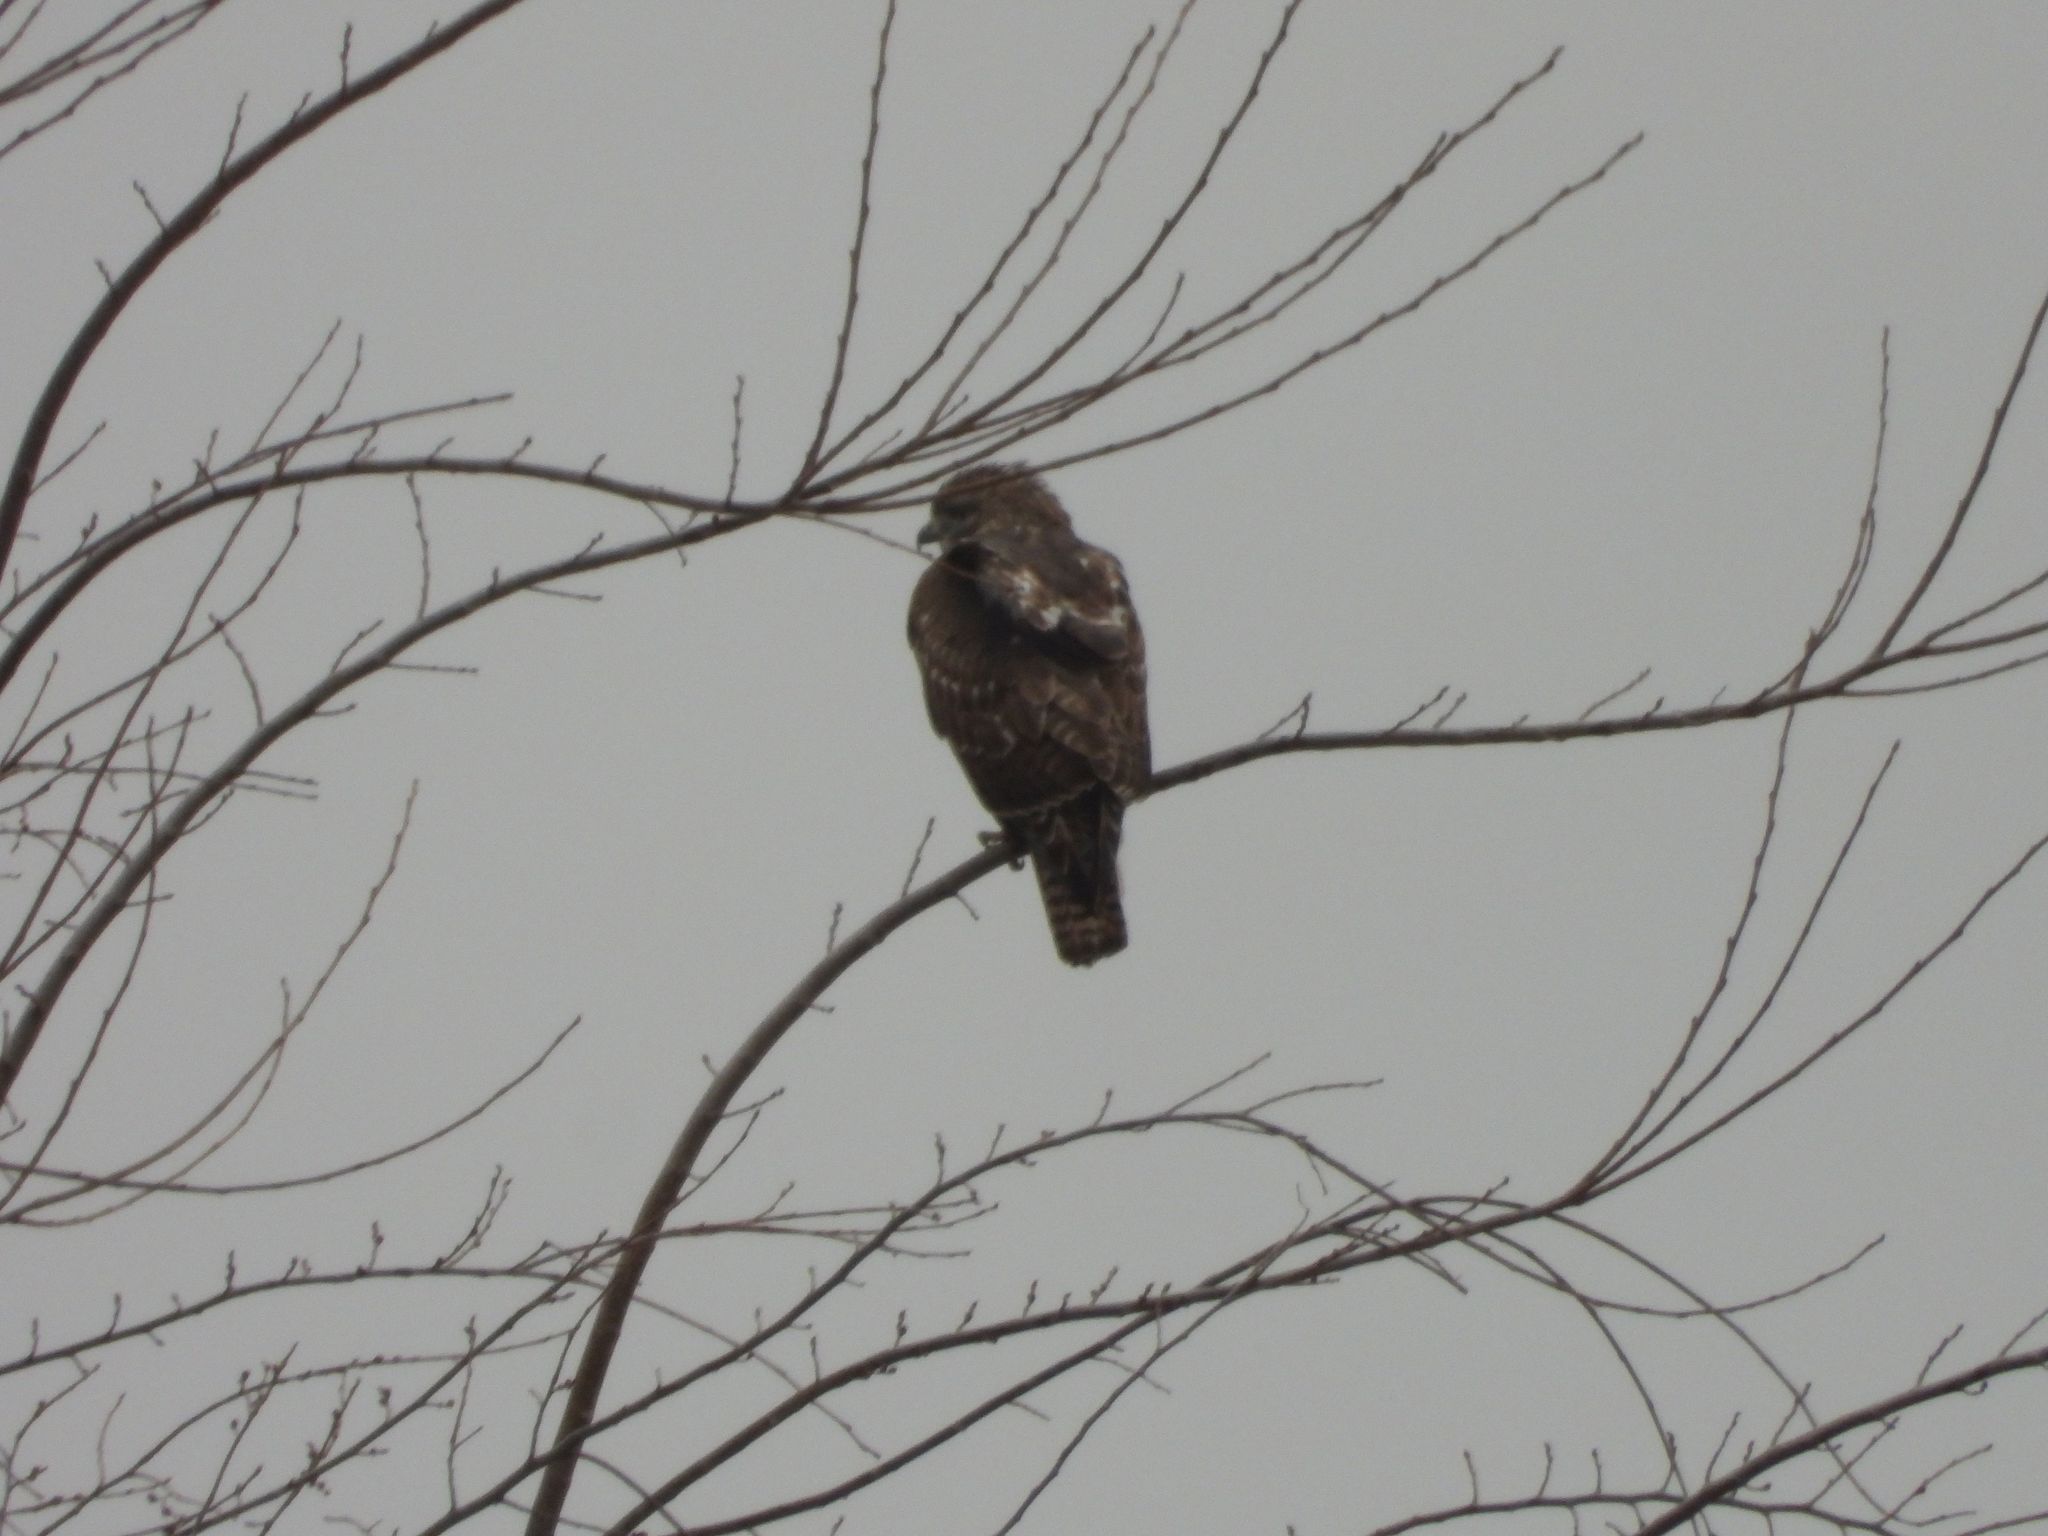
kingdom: Animalia
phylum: Chordata
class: Aves
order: Accipitriformes
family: Accipitridae
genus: Buteo
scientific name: Buteo jamaicensis
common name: Red-tailed hawk
